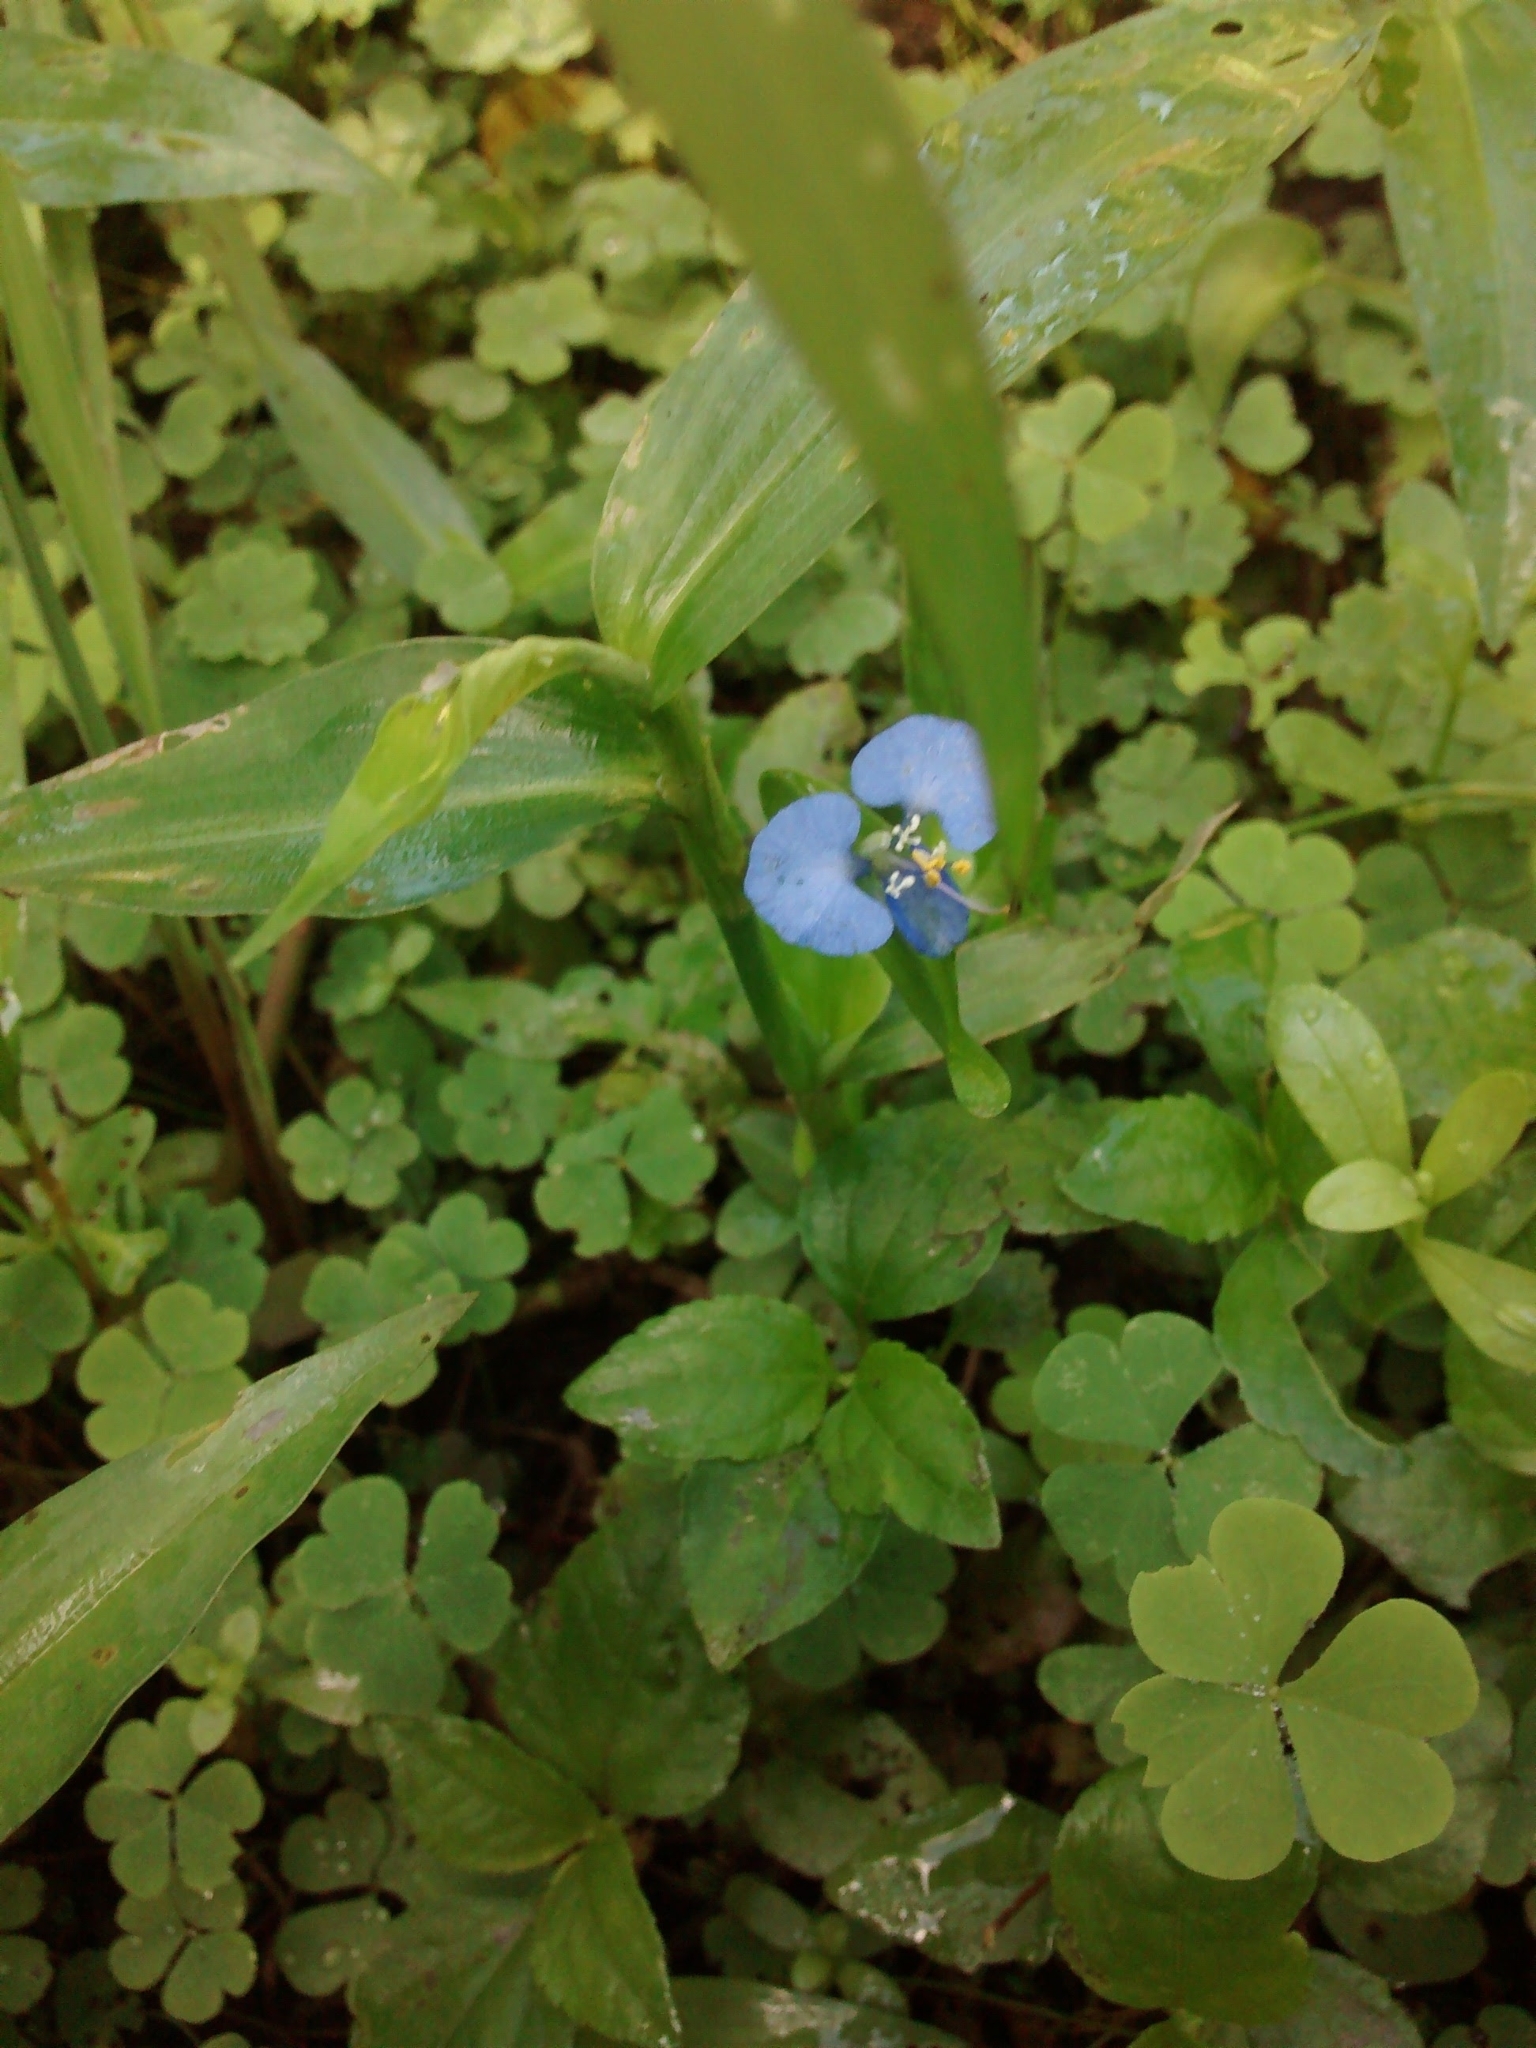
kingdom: Plantae
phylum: Tracheophyta
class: Liliopsida
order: Commelinales
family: Commelinaceae
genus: Commelina
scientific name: Commelina erecta
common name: Blousel blommetjie
